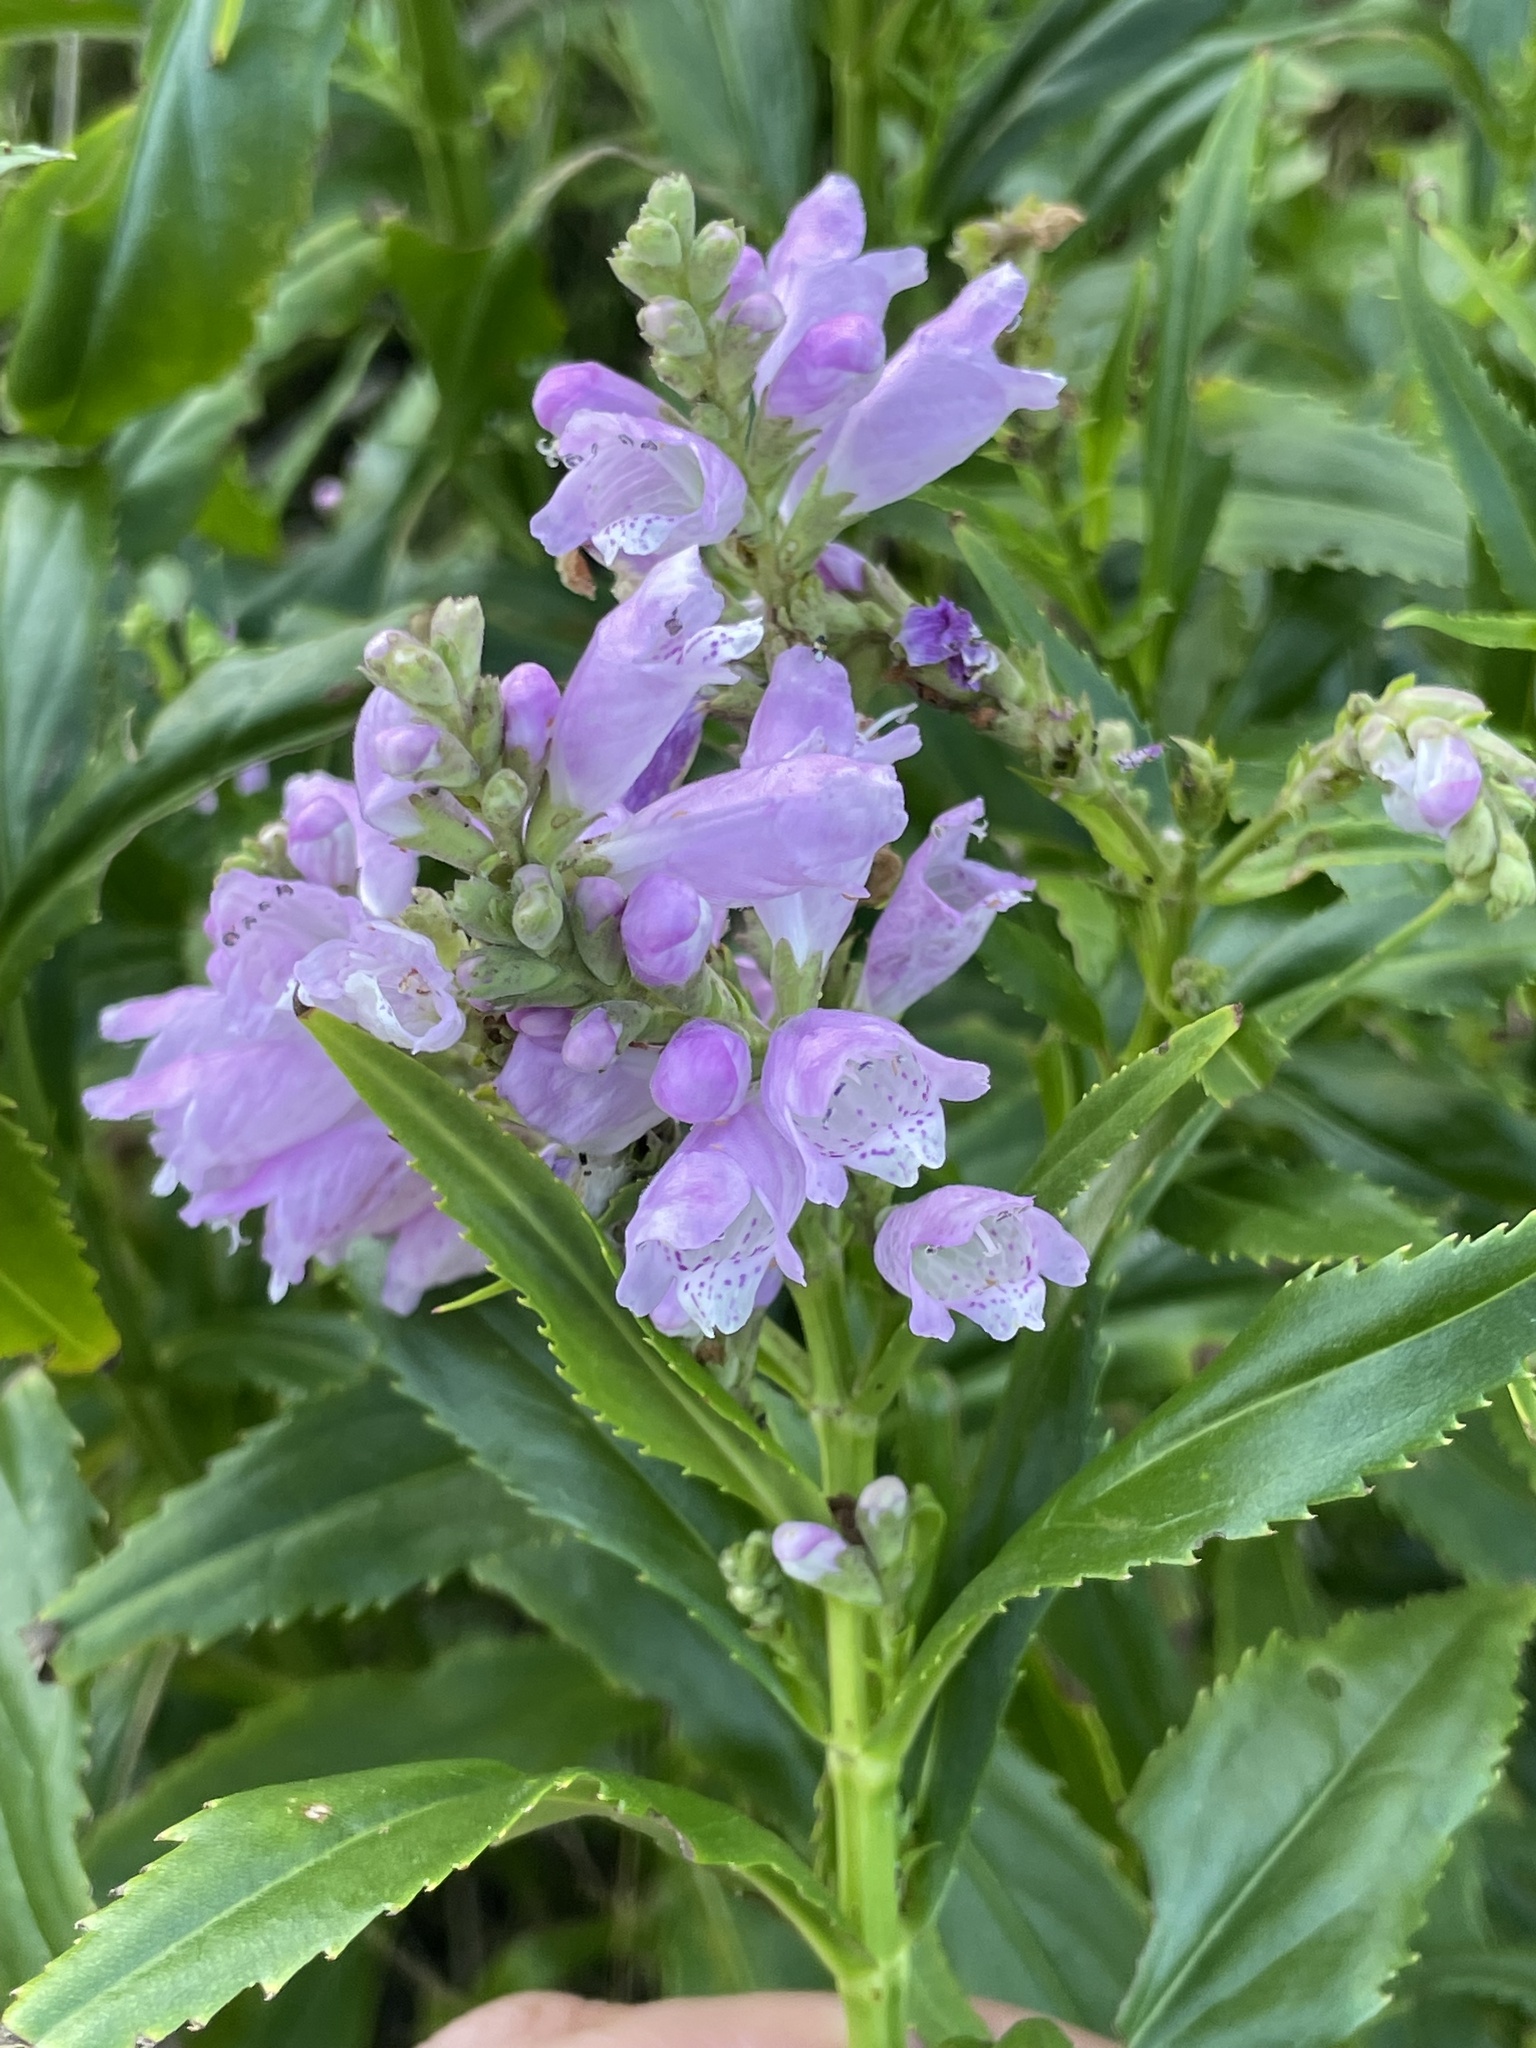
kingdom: Plantae
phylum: Tracheophyta
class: Magnoliopsida
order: Lamiales
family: Lamiaceae
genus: Physostegia
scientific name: Physostegia virginiana
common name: Obedient-plant
